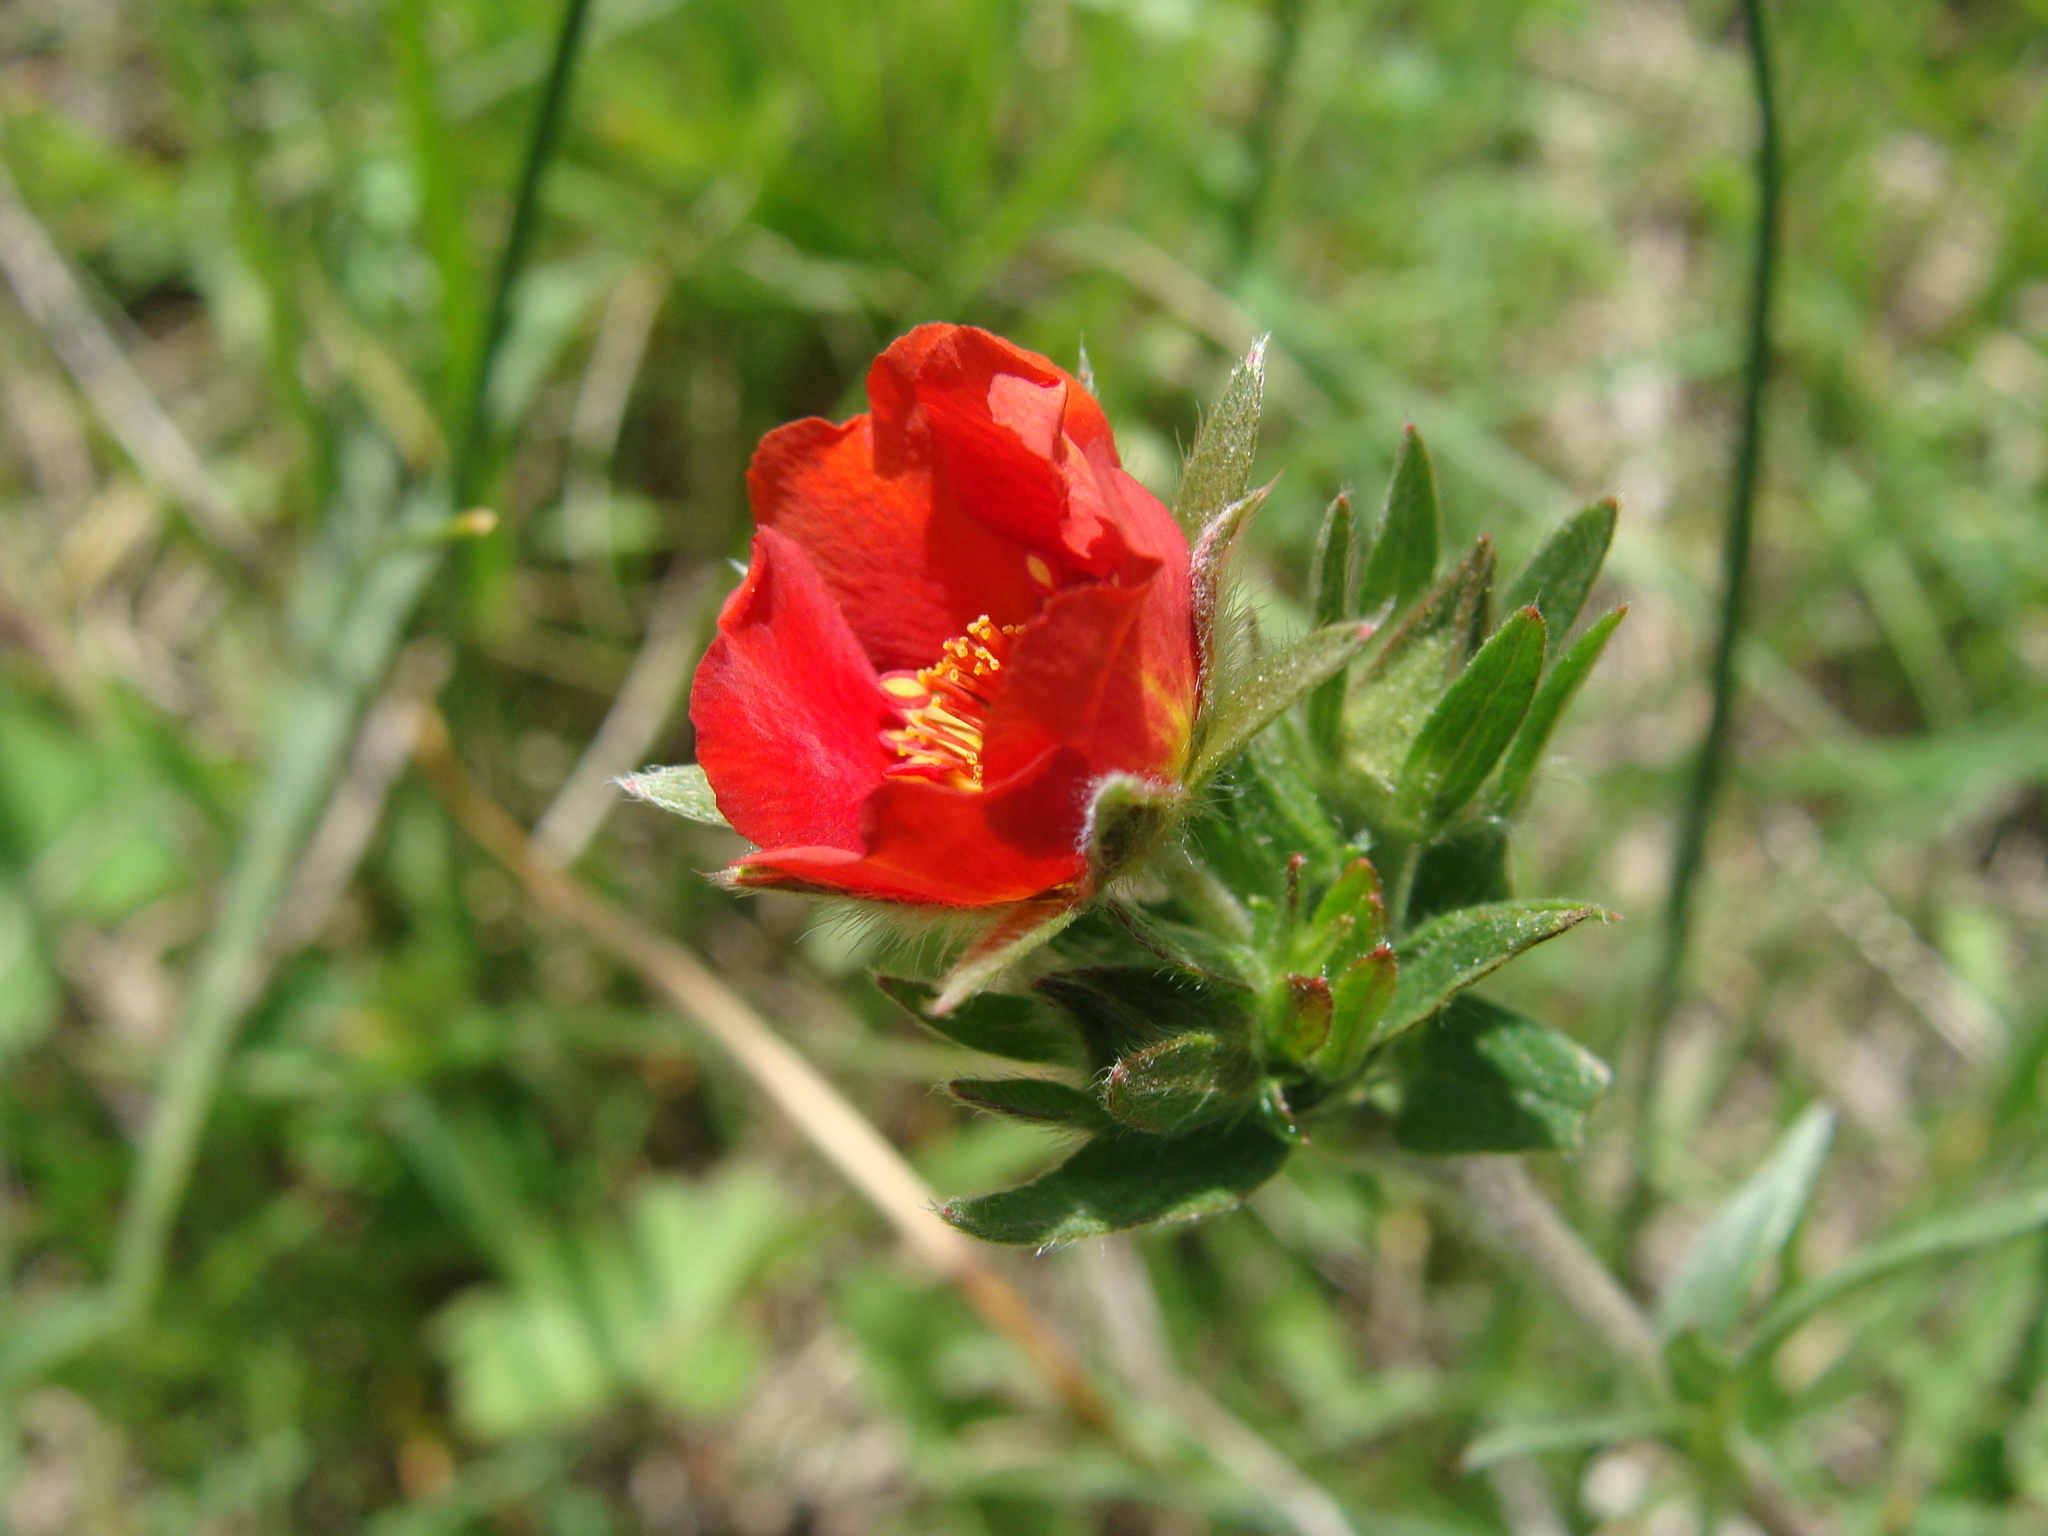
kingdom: Plantae
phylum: Tracheophyta
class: Magnoliopsida
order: Rosales
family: Rosaceae
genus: Potentilla
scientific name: Potentilla ehrenbergiana
